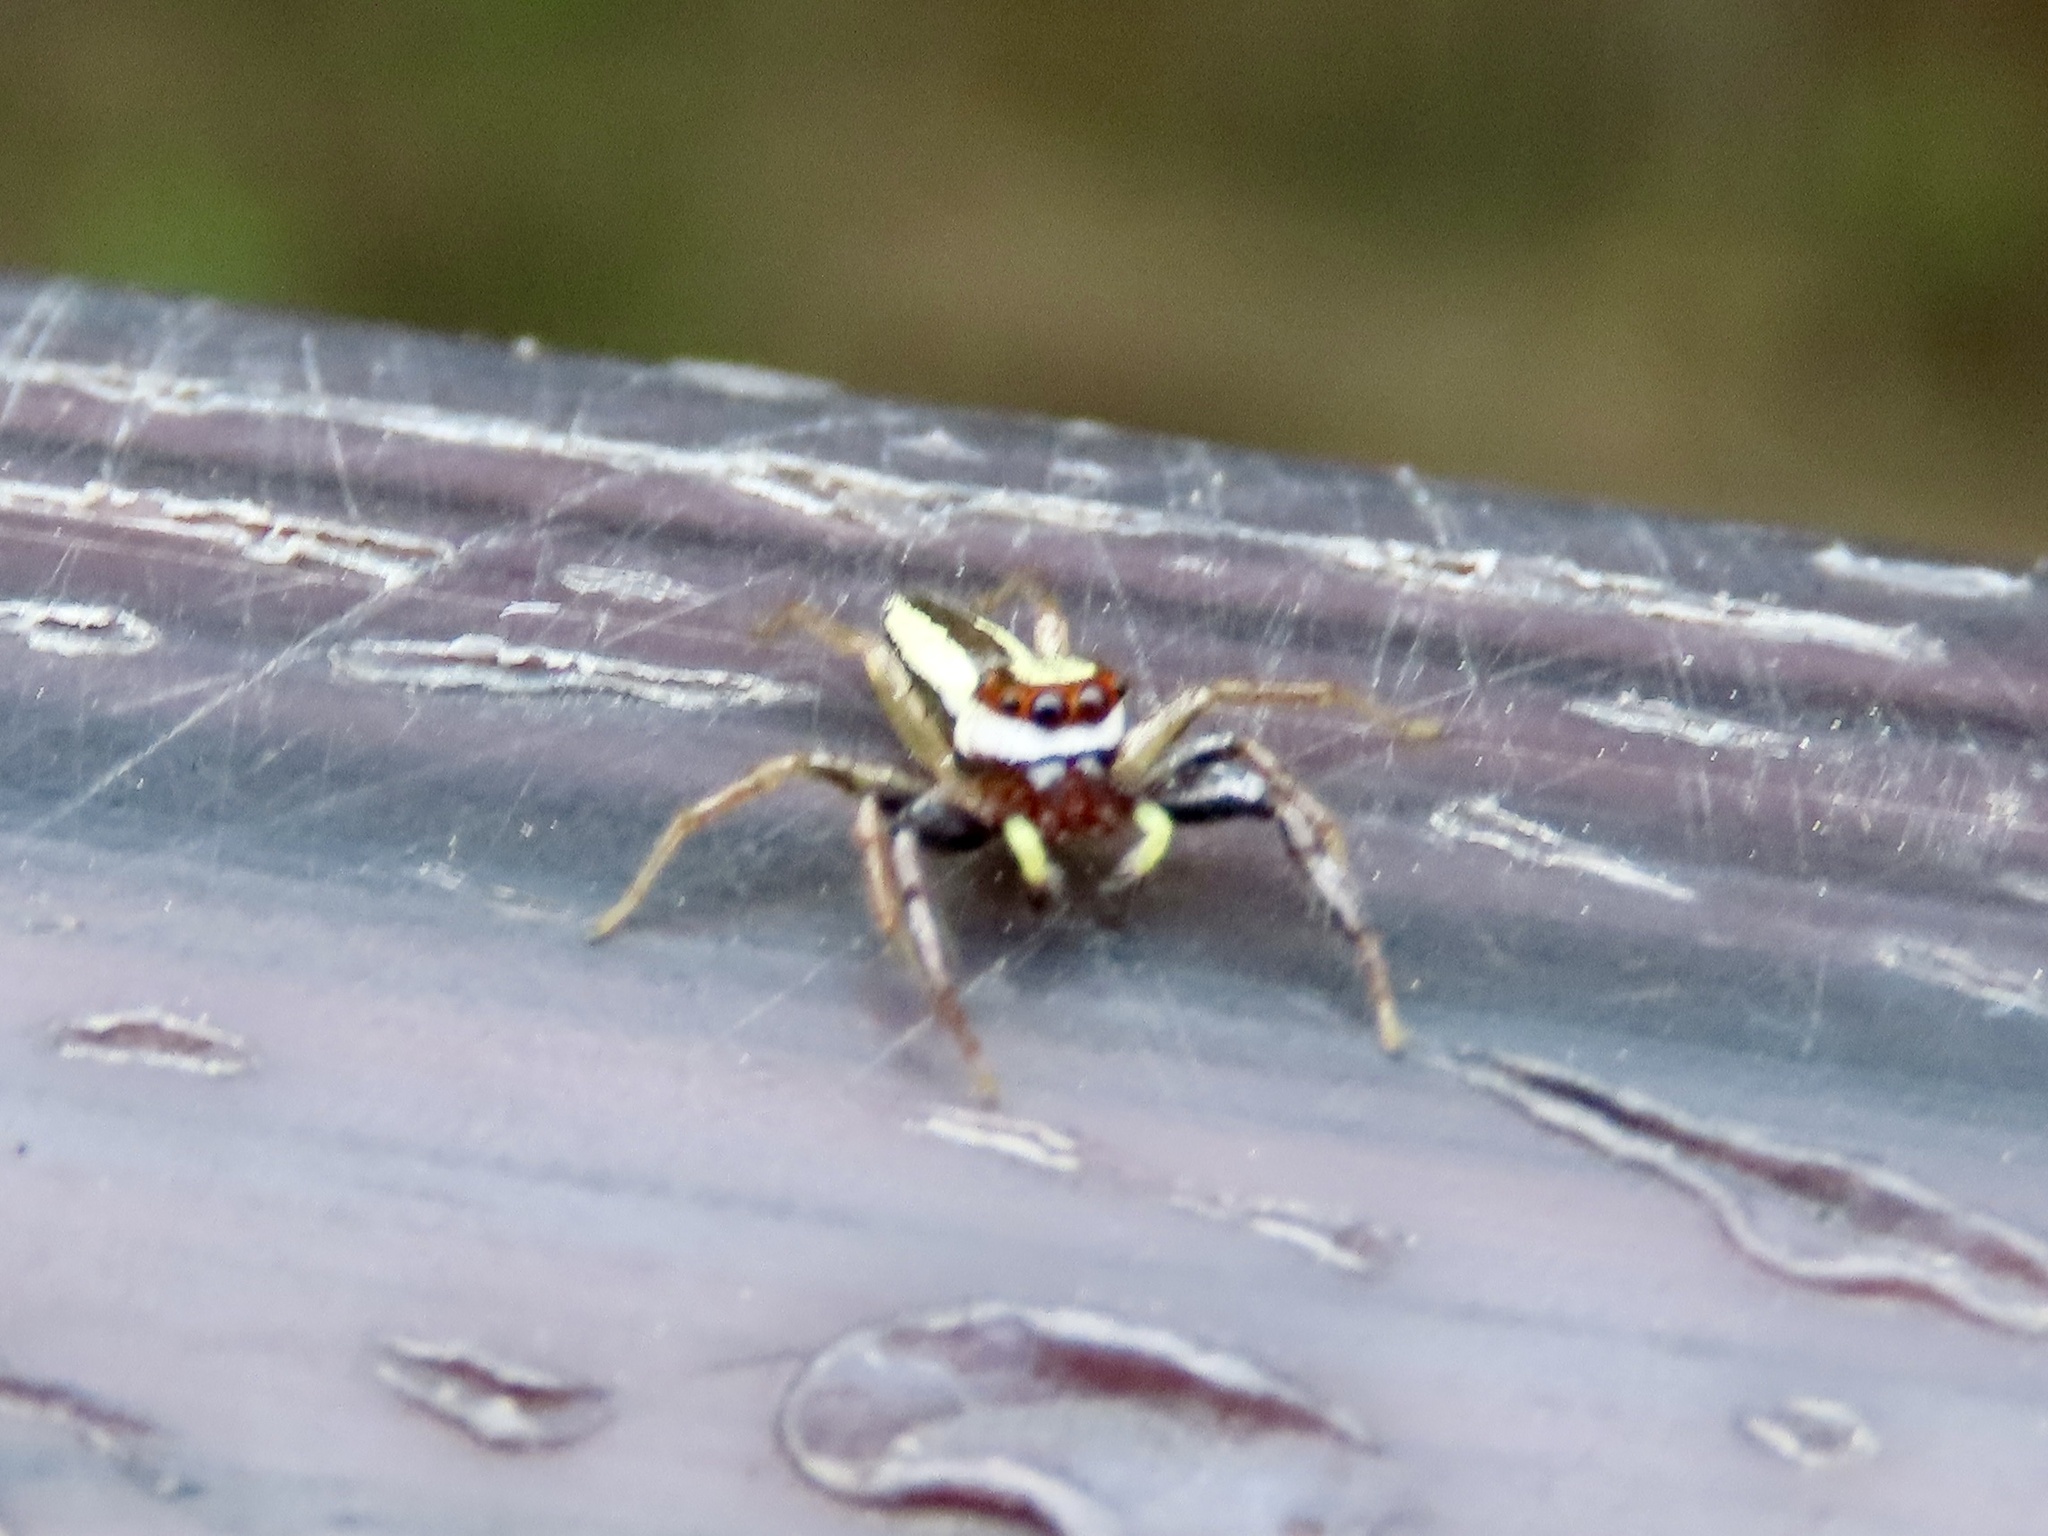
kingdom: Animalia
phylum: Arthropoda
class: Arachnida
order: Araneae
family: Salticidae
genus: Epocilla
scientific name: Epocilla blairei
